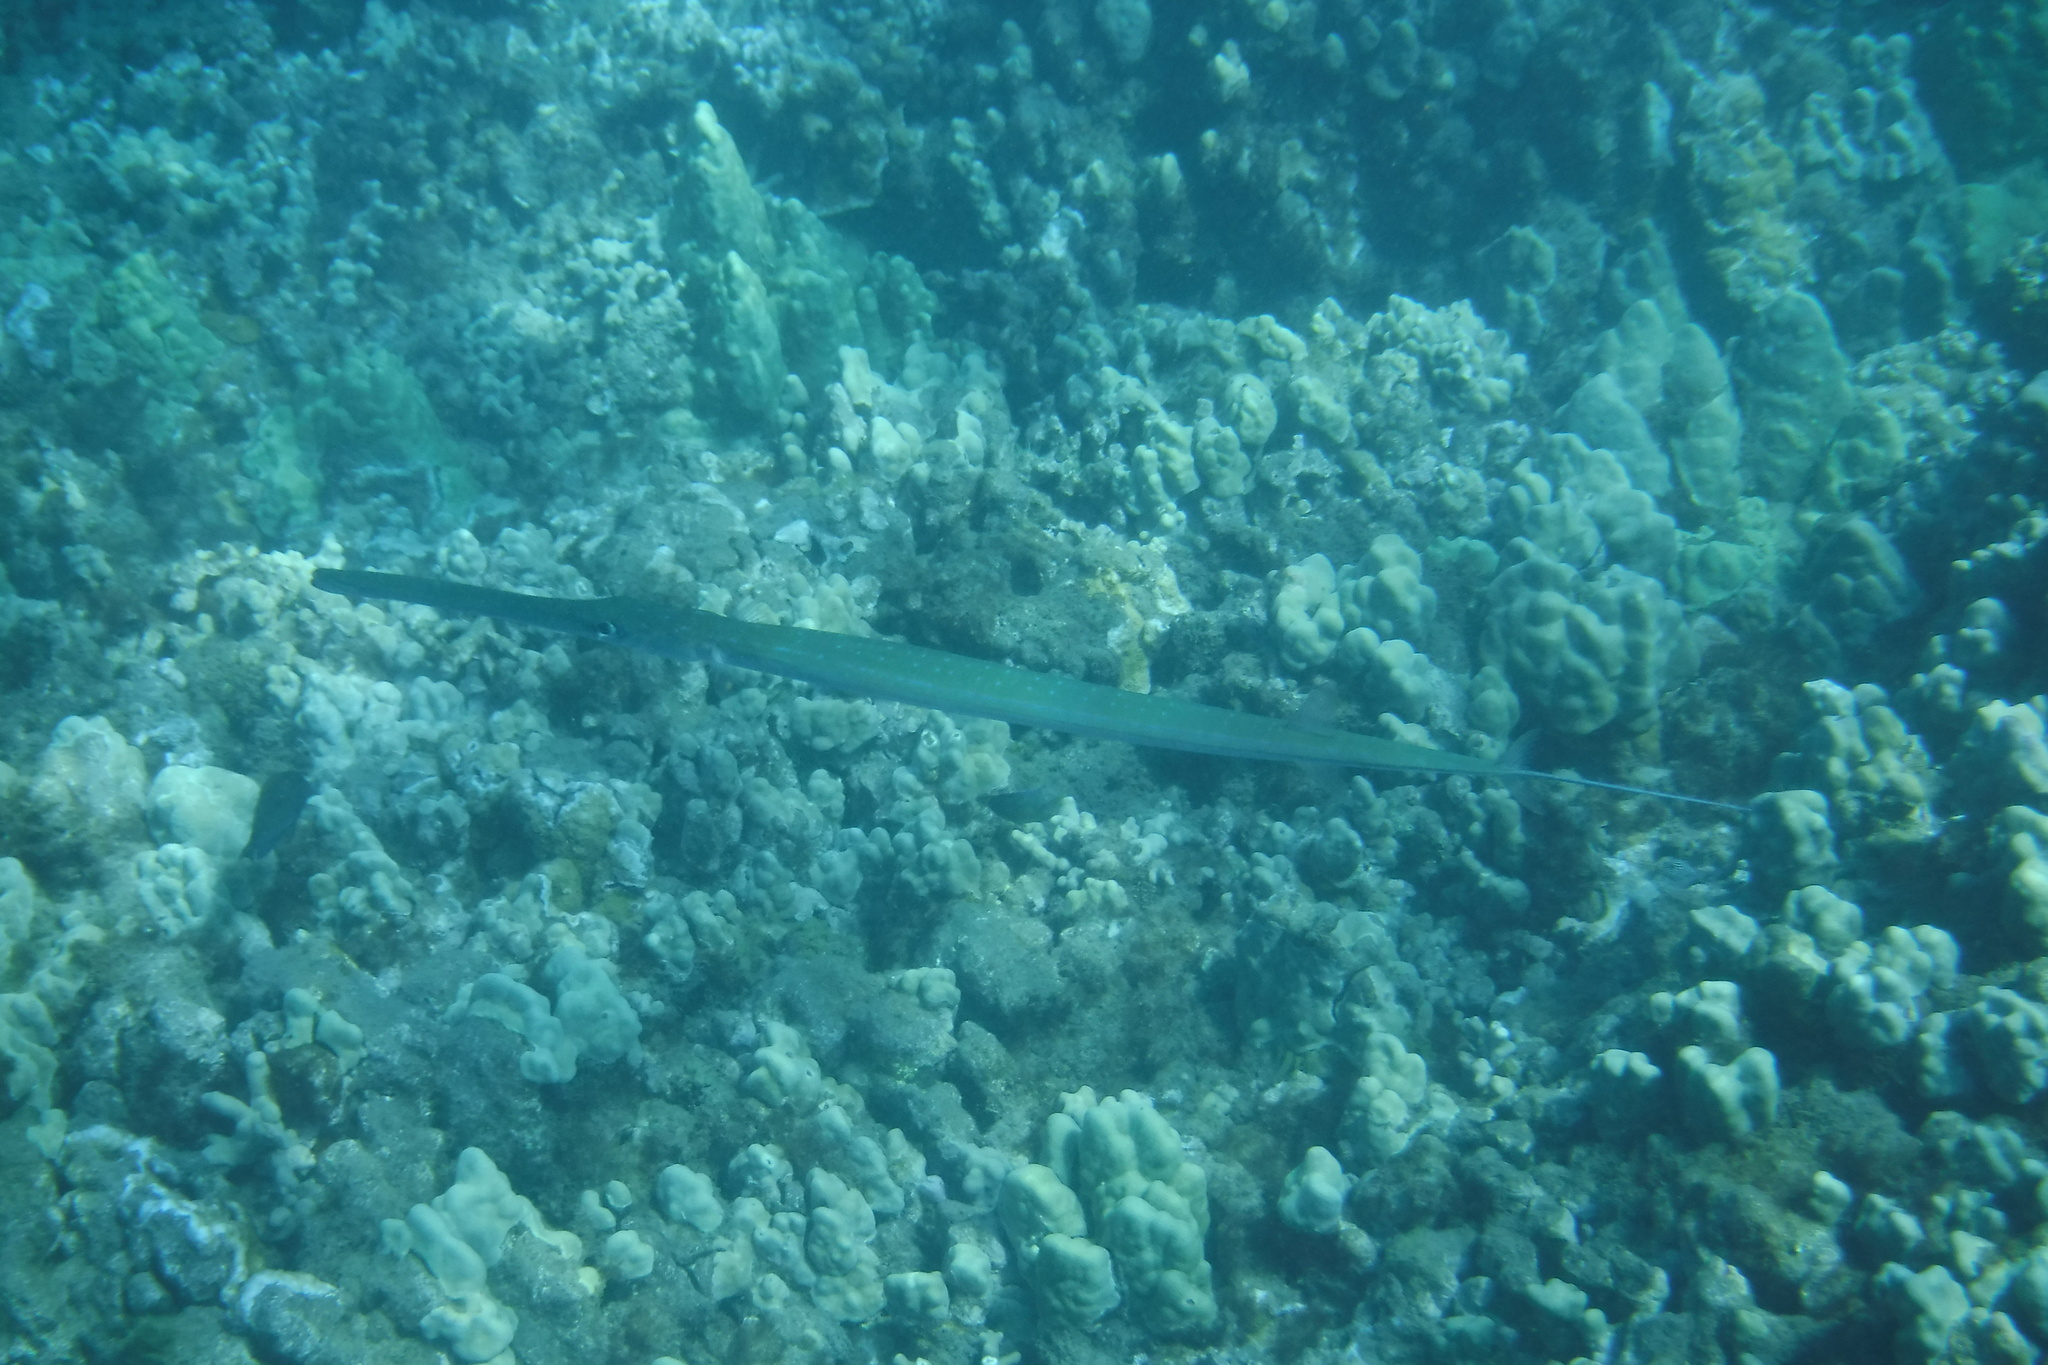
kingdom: Animalia
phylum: Chordata
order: Syngnathiformes
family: Fistulariidae
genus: Fistularia
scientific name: Fistularia commersonii
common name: Bluespotted cornetfish
